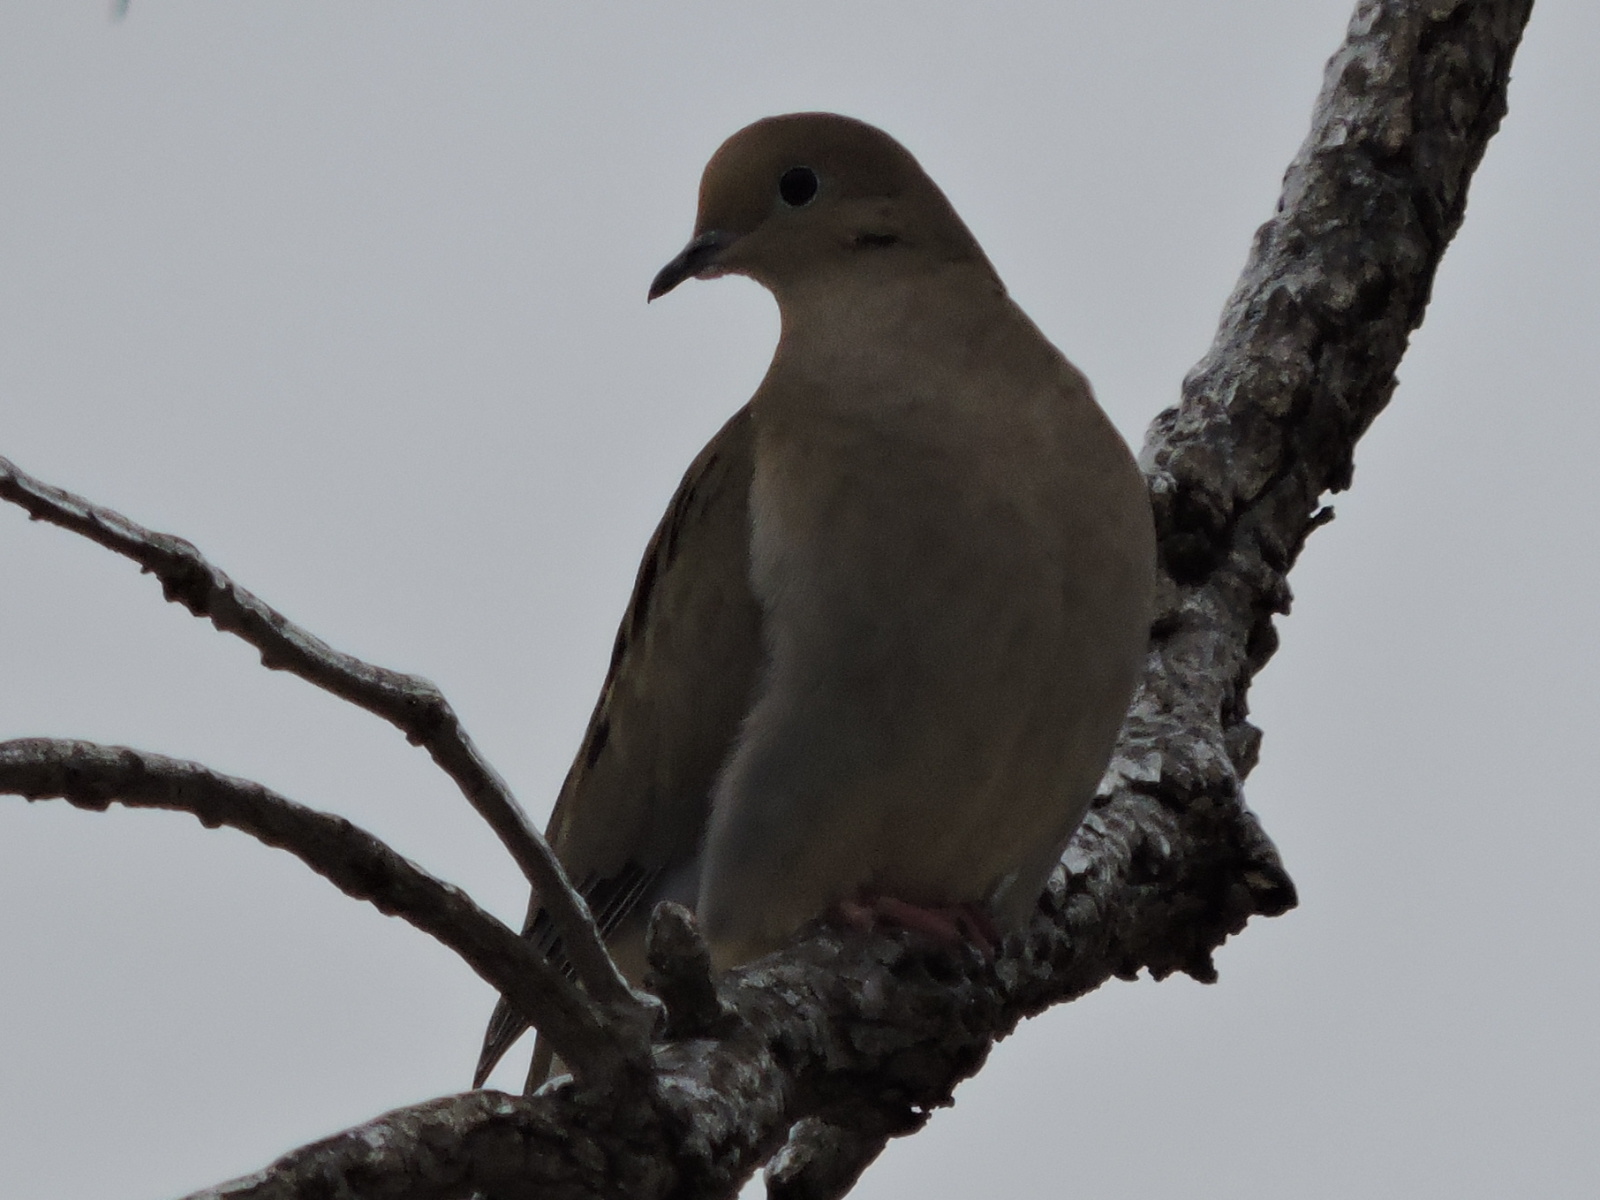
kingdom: Animalia
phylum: Chordata
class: Aves
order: Columbiformes
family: Columbidae
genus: Zenaida
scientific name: Zenaida macroura
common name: Mourning dove
